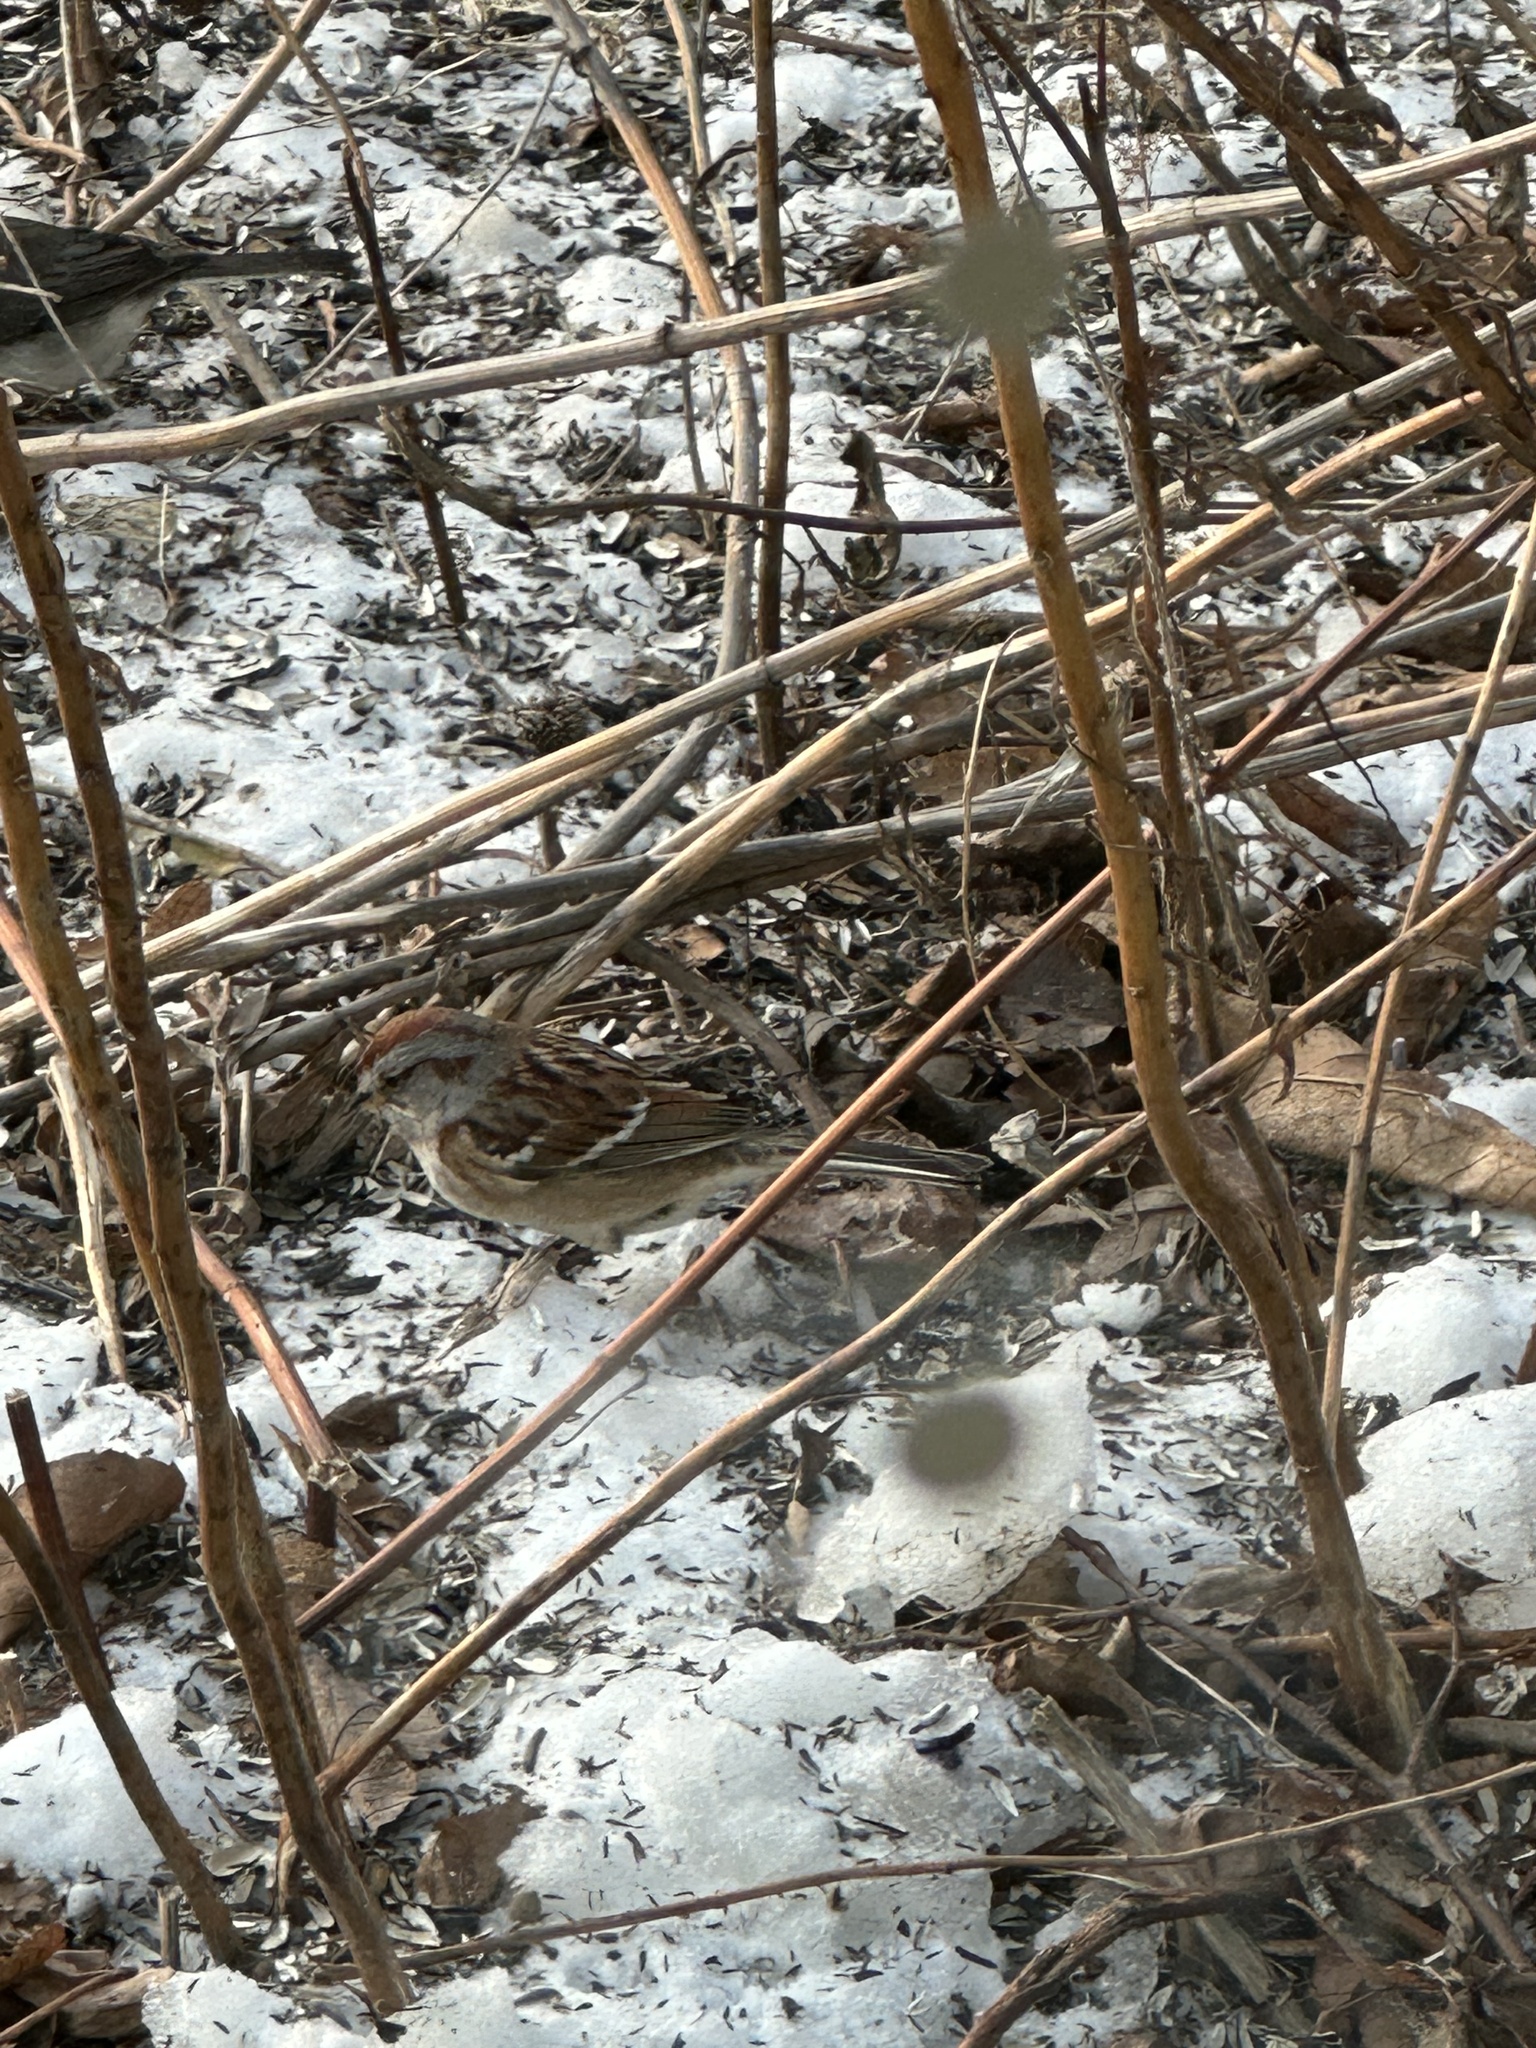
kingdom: Animalia
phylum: Chordata
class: Aves
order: Passeriformes
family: Passerellidae
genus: Spizelloides
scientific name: Spizelloides arborea
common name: American tree sparrow
